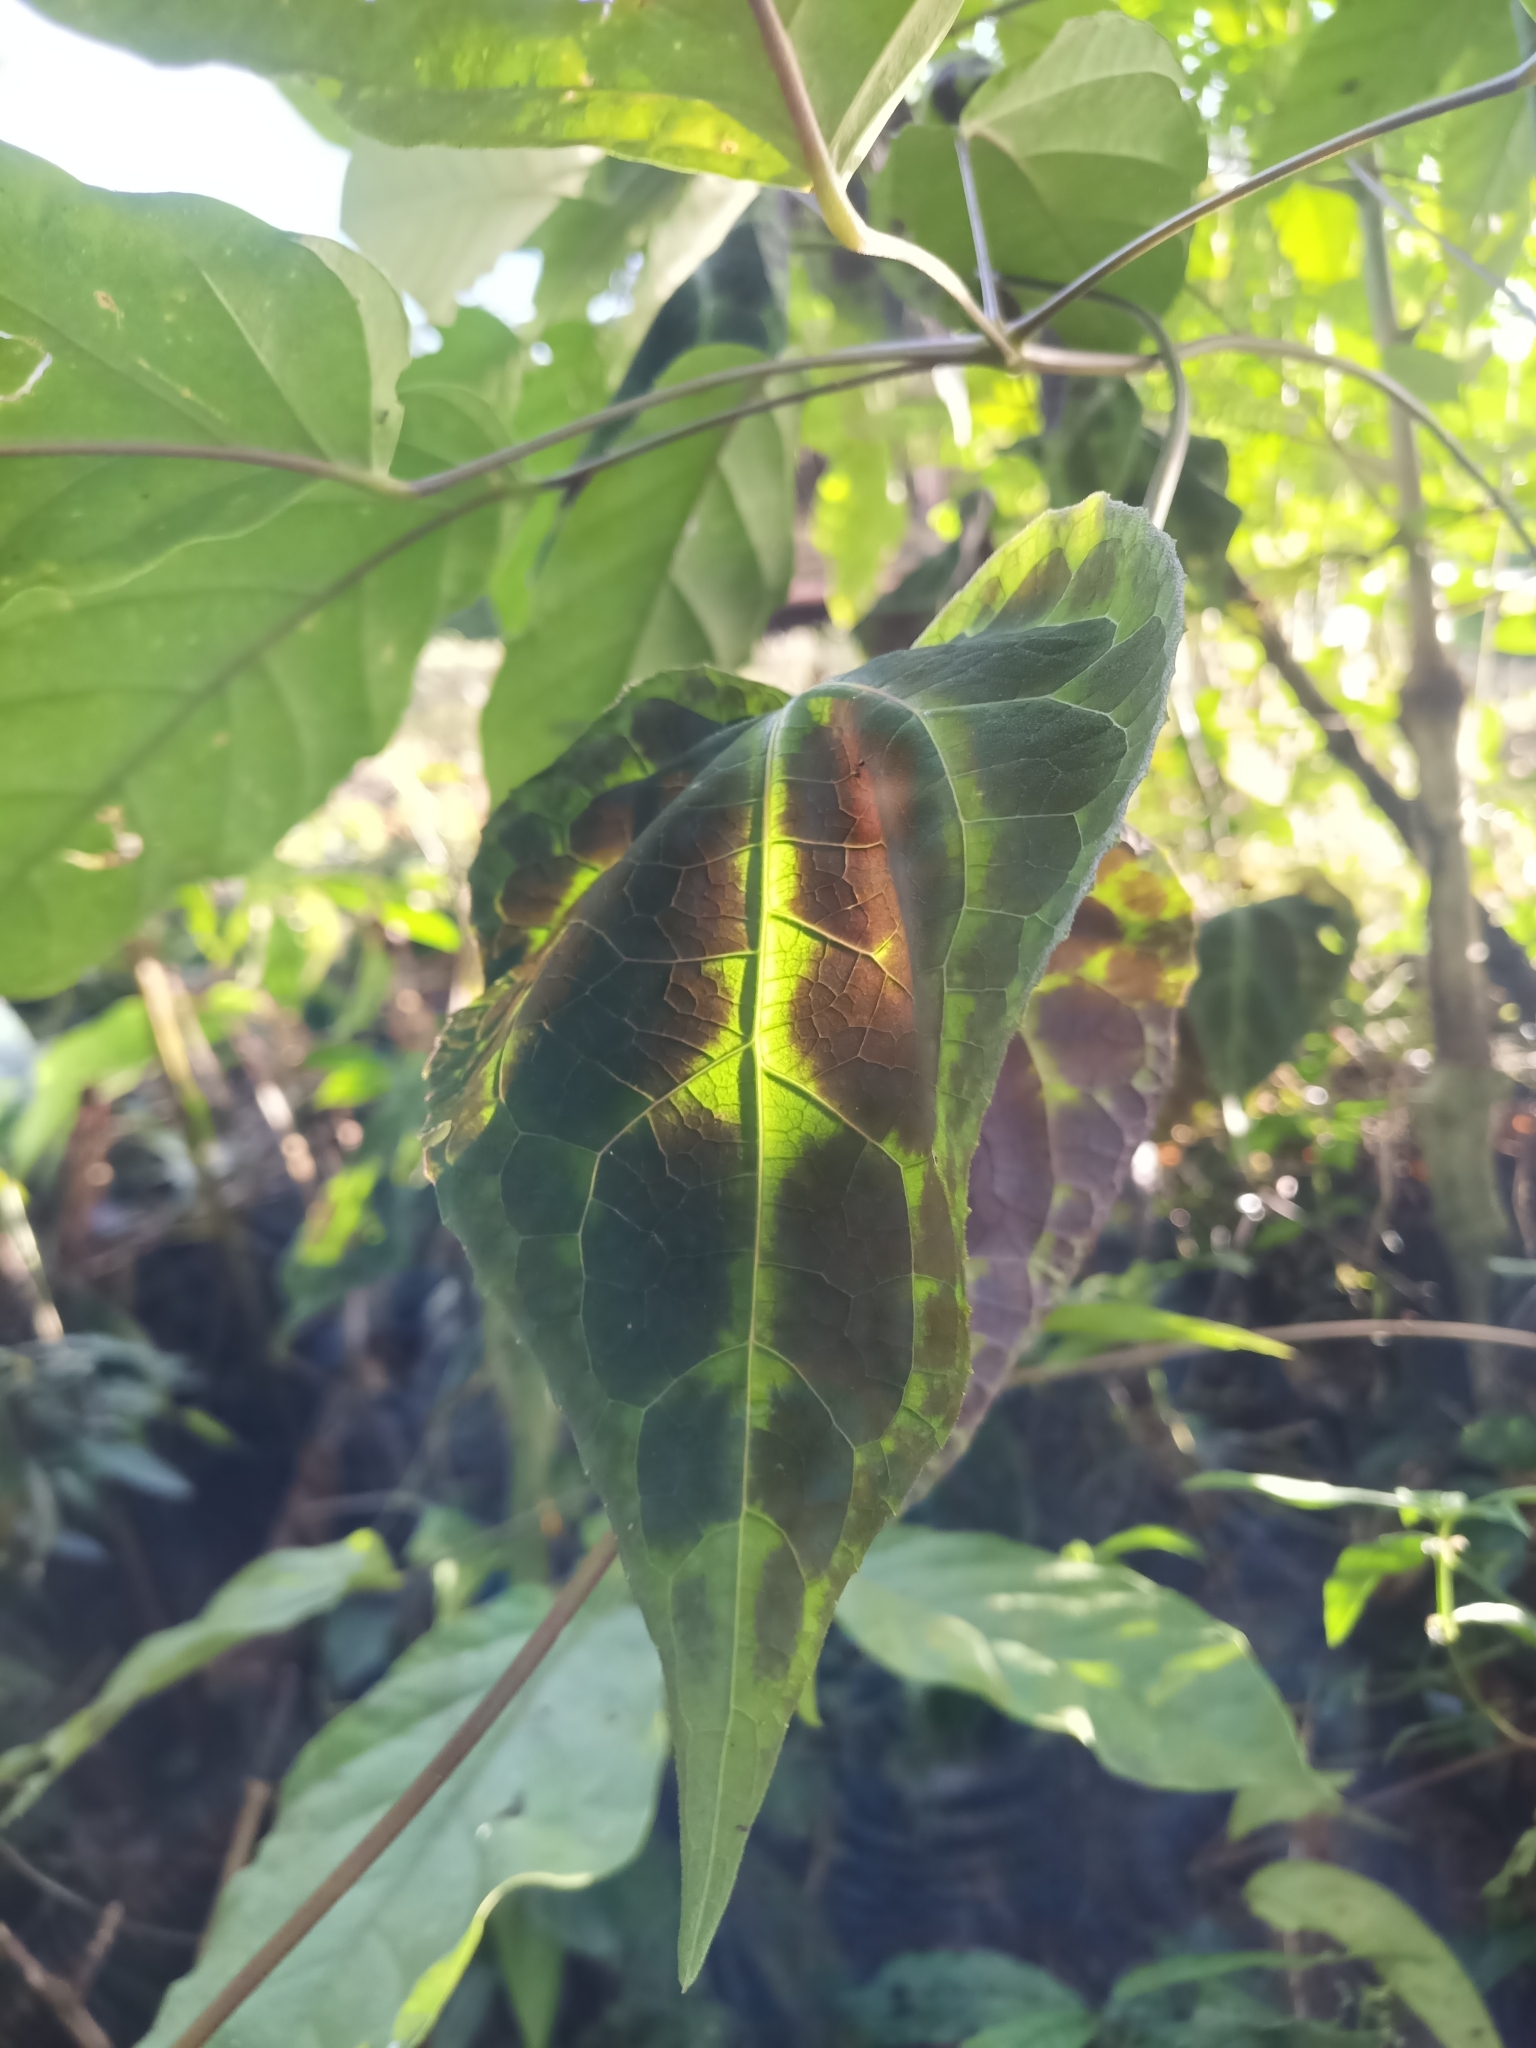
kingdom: Plantae
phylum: Tracheophyta
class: Magnoliopsida
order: Asterales
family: Asteraceae
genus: Mikania
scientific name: Mikania guaco
